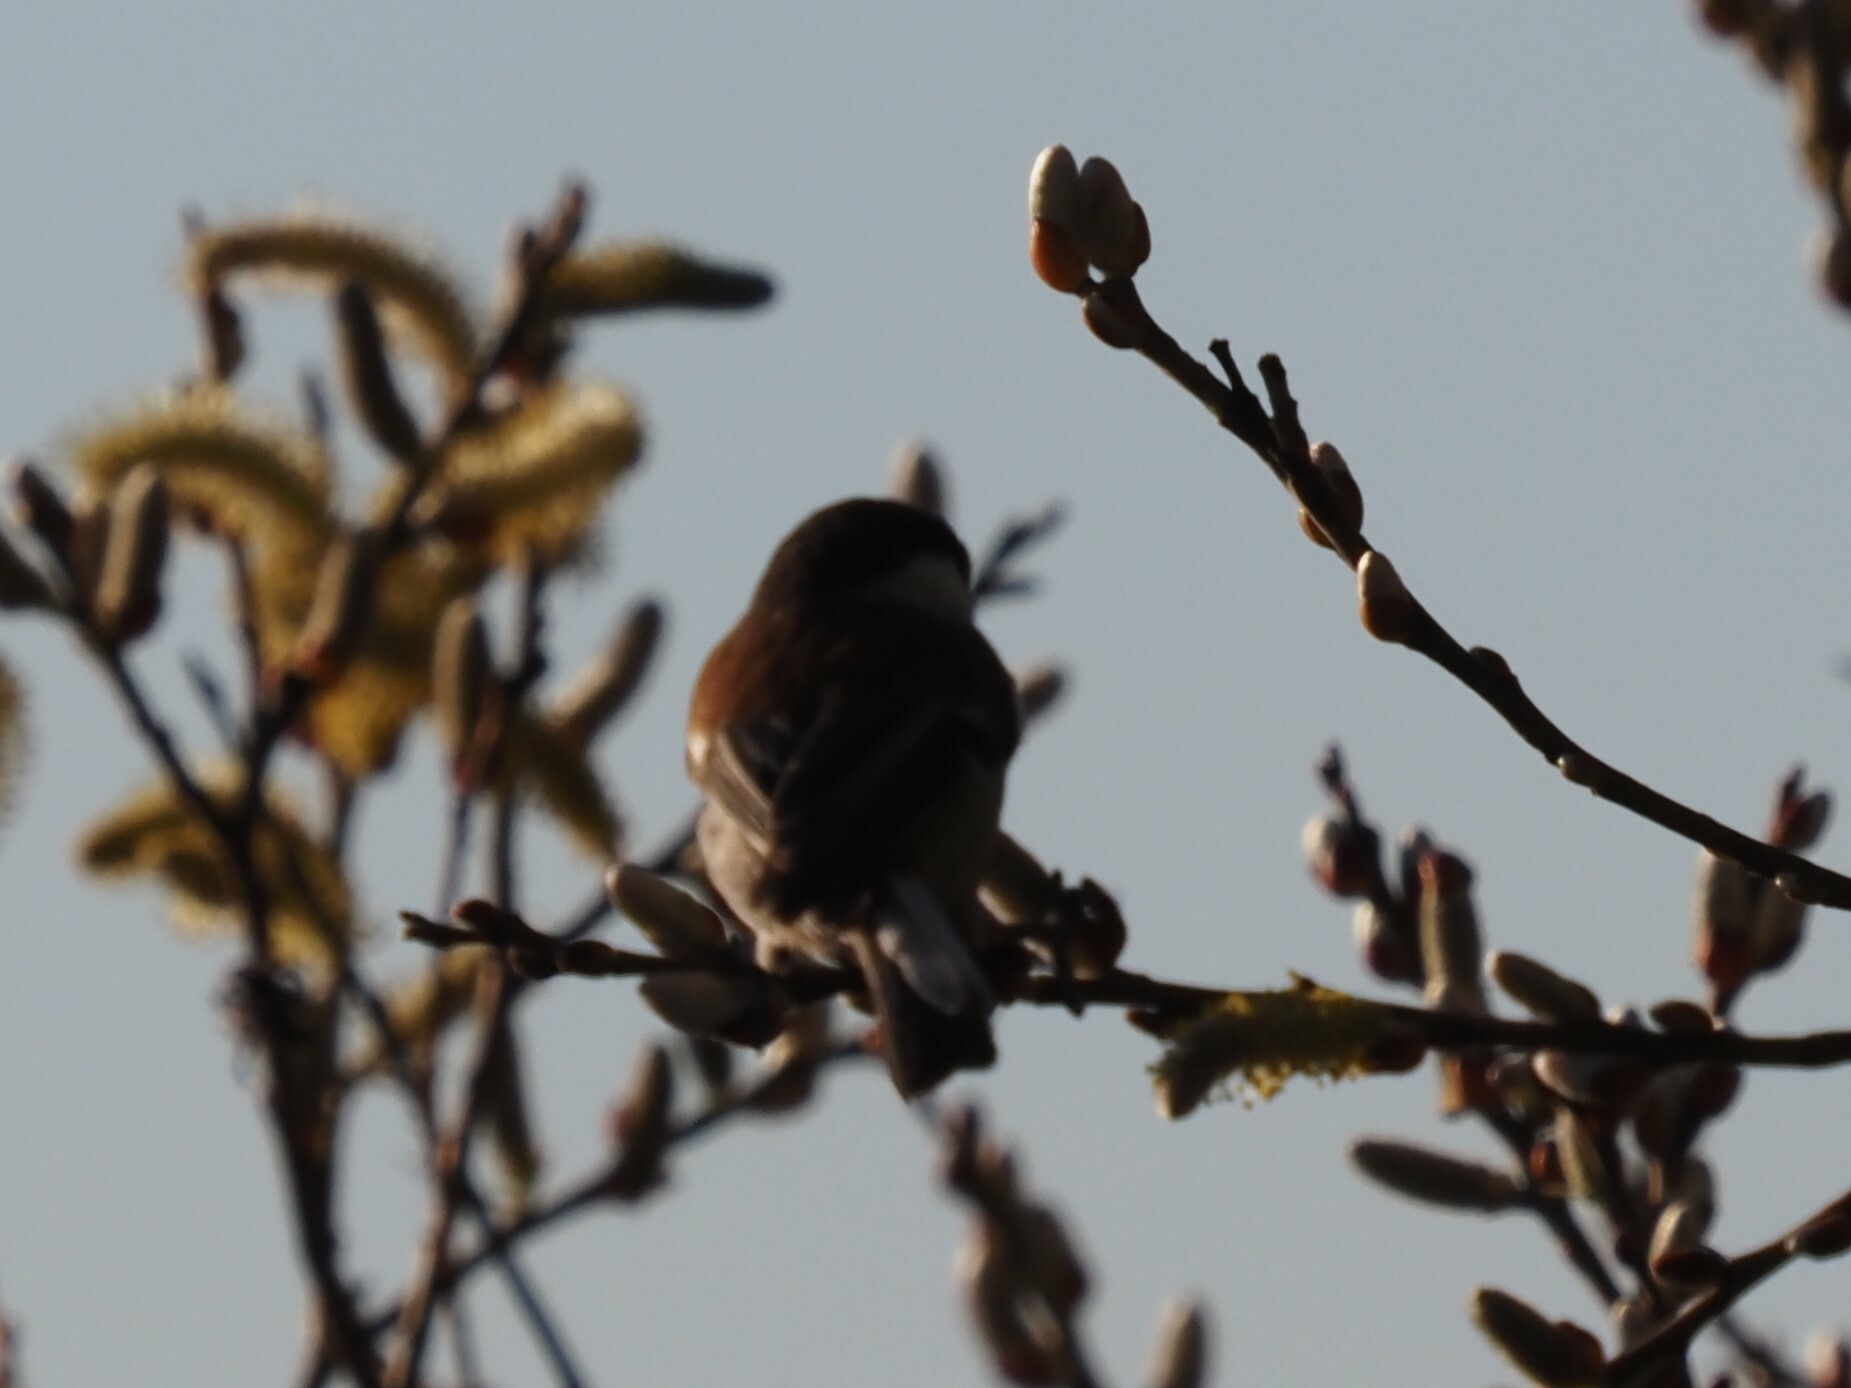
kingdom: Animalia
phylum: Chordata
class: Aves
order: Passeriformes
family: Paridae
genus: Poecile
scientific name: Poecile rufescens
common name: Chestnut-backed chickadee
